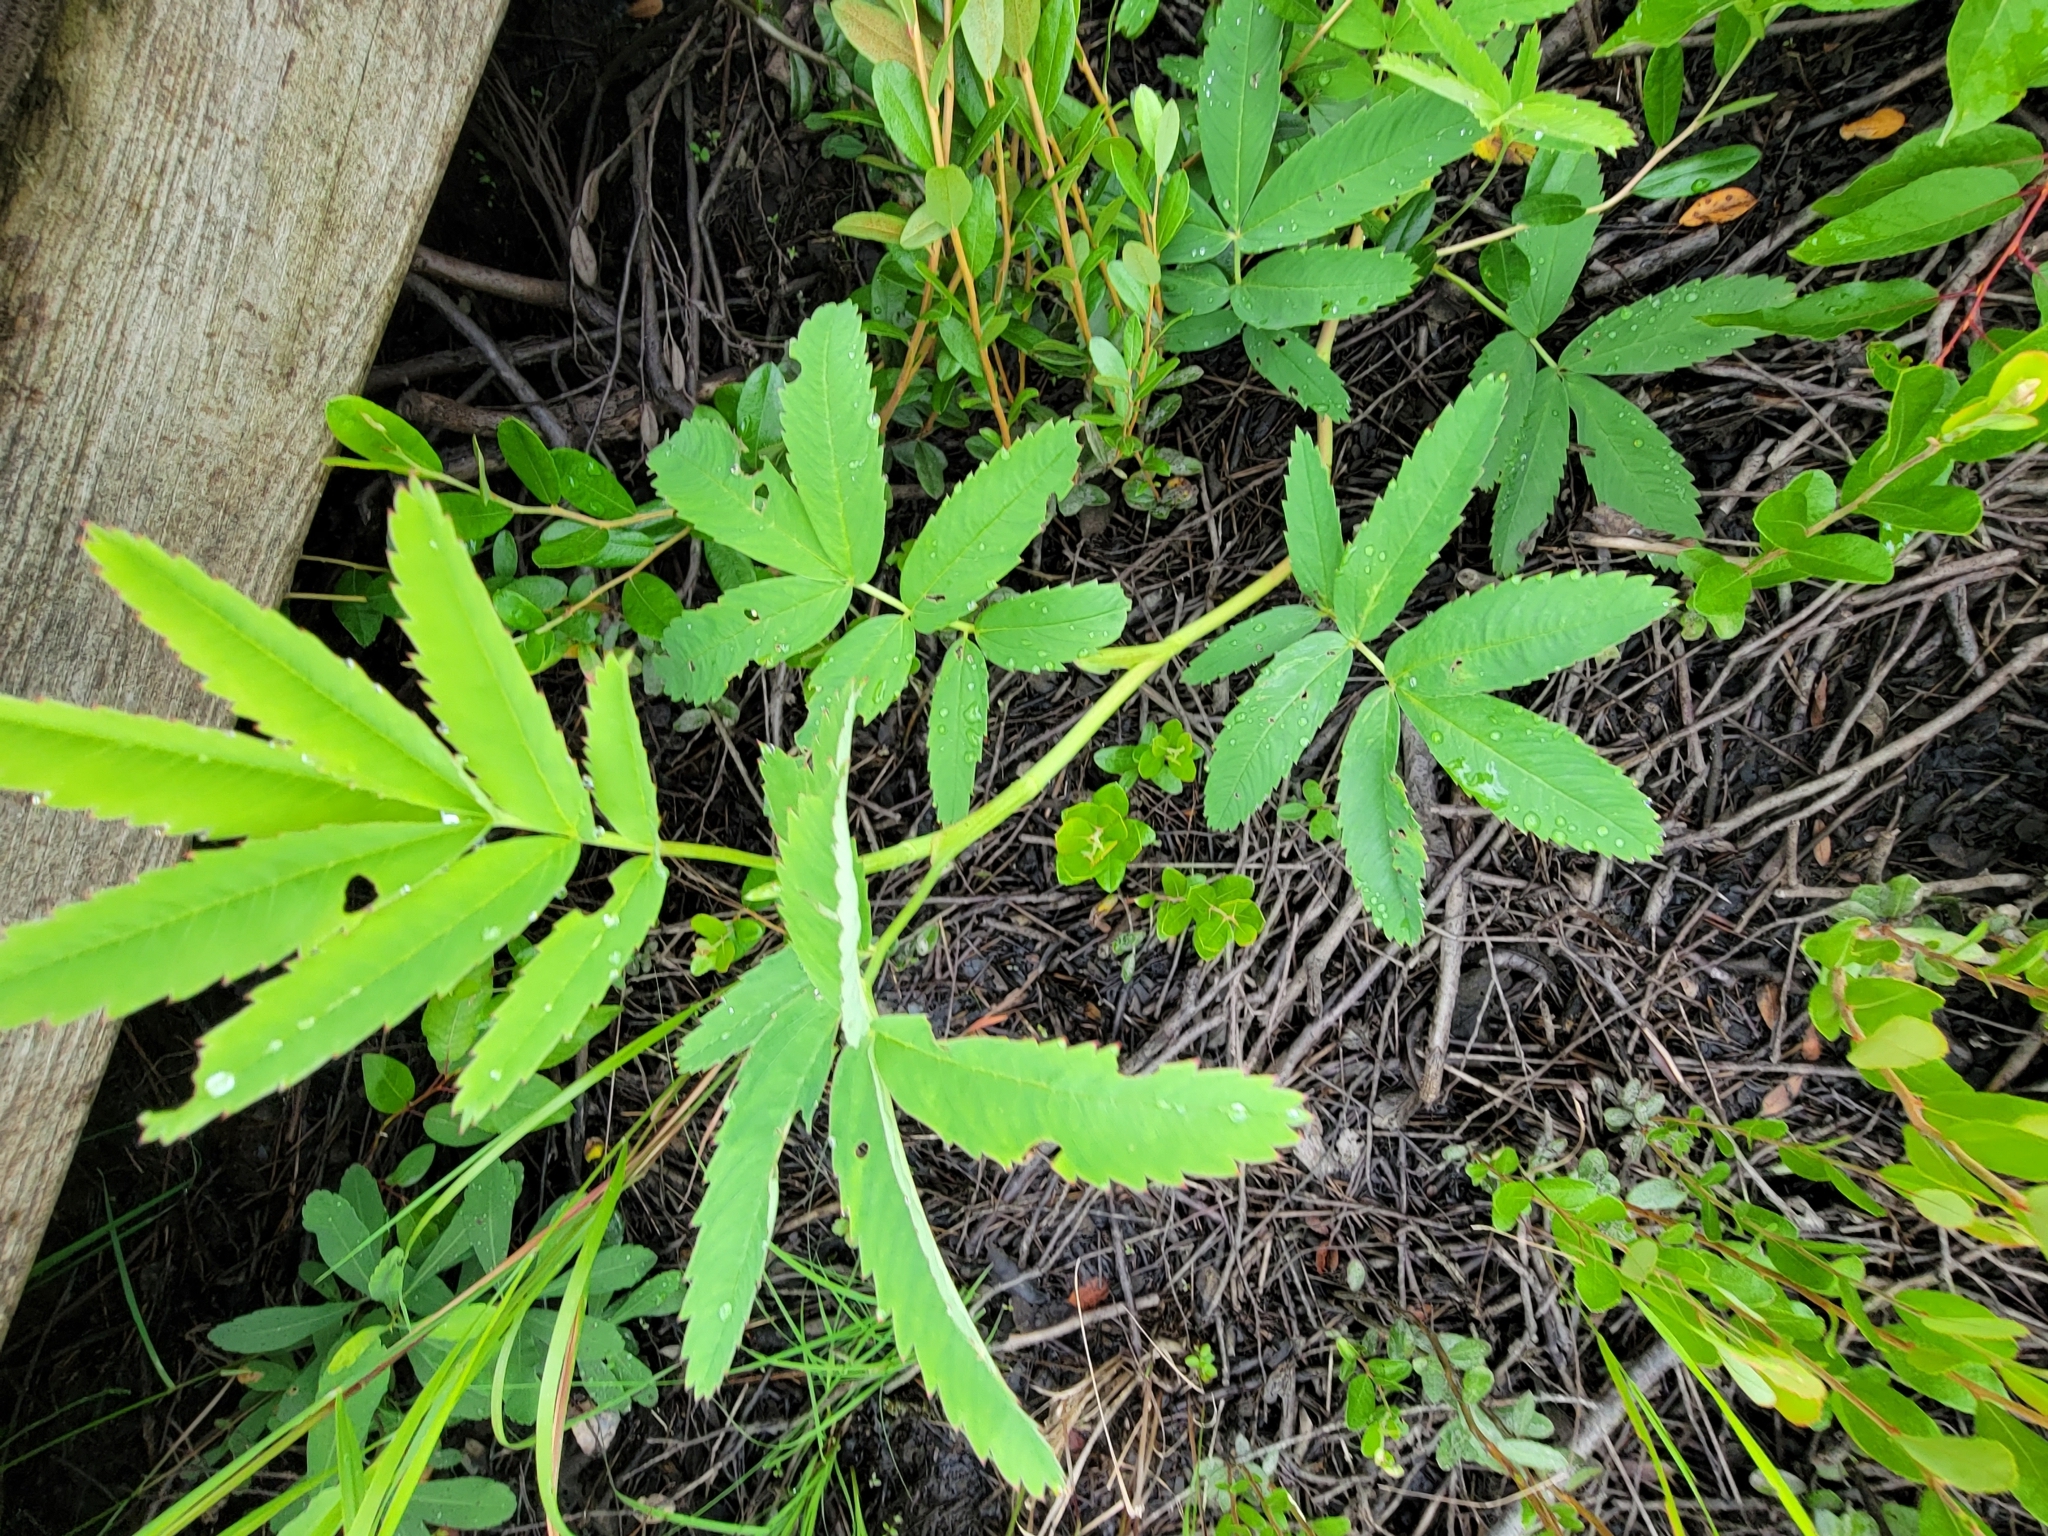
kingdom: Plantae
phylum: Tracheophyta
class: Magnoliopsida
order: Rosales
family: Rosaceae
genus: Comarum
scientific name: Comarum palustre
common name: Marsh cinquefoil
